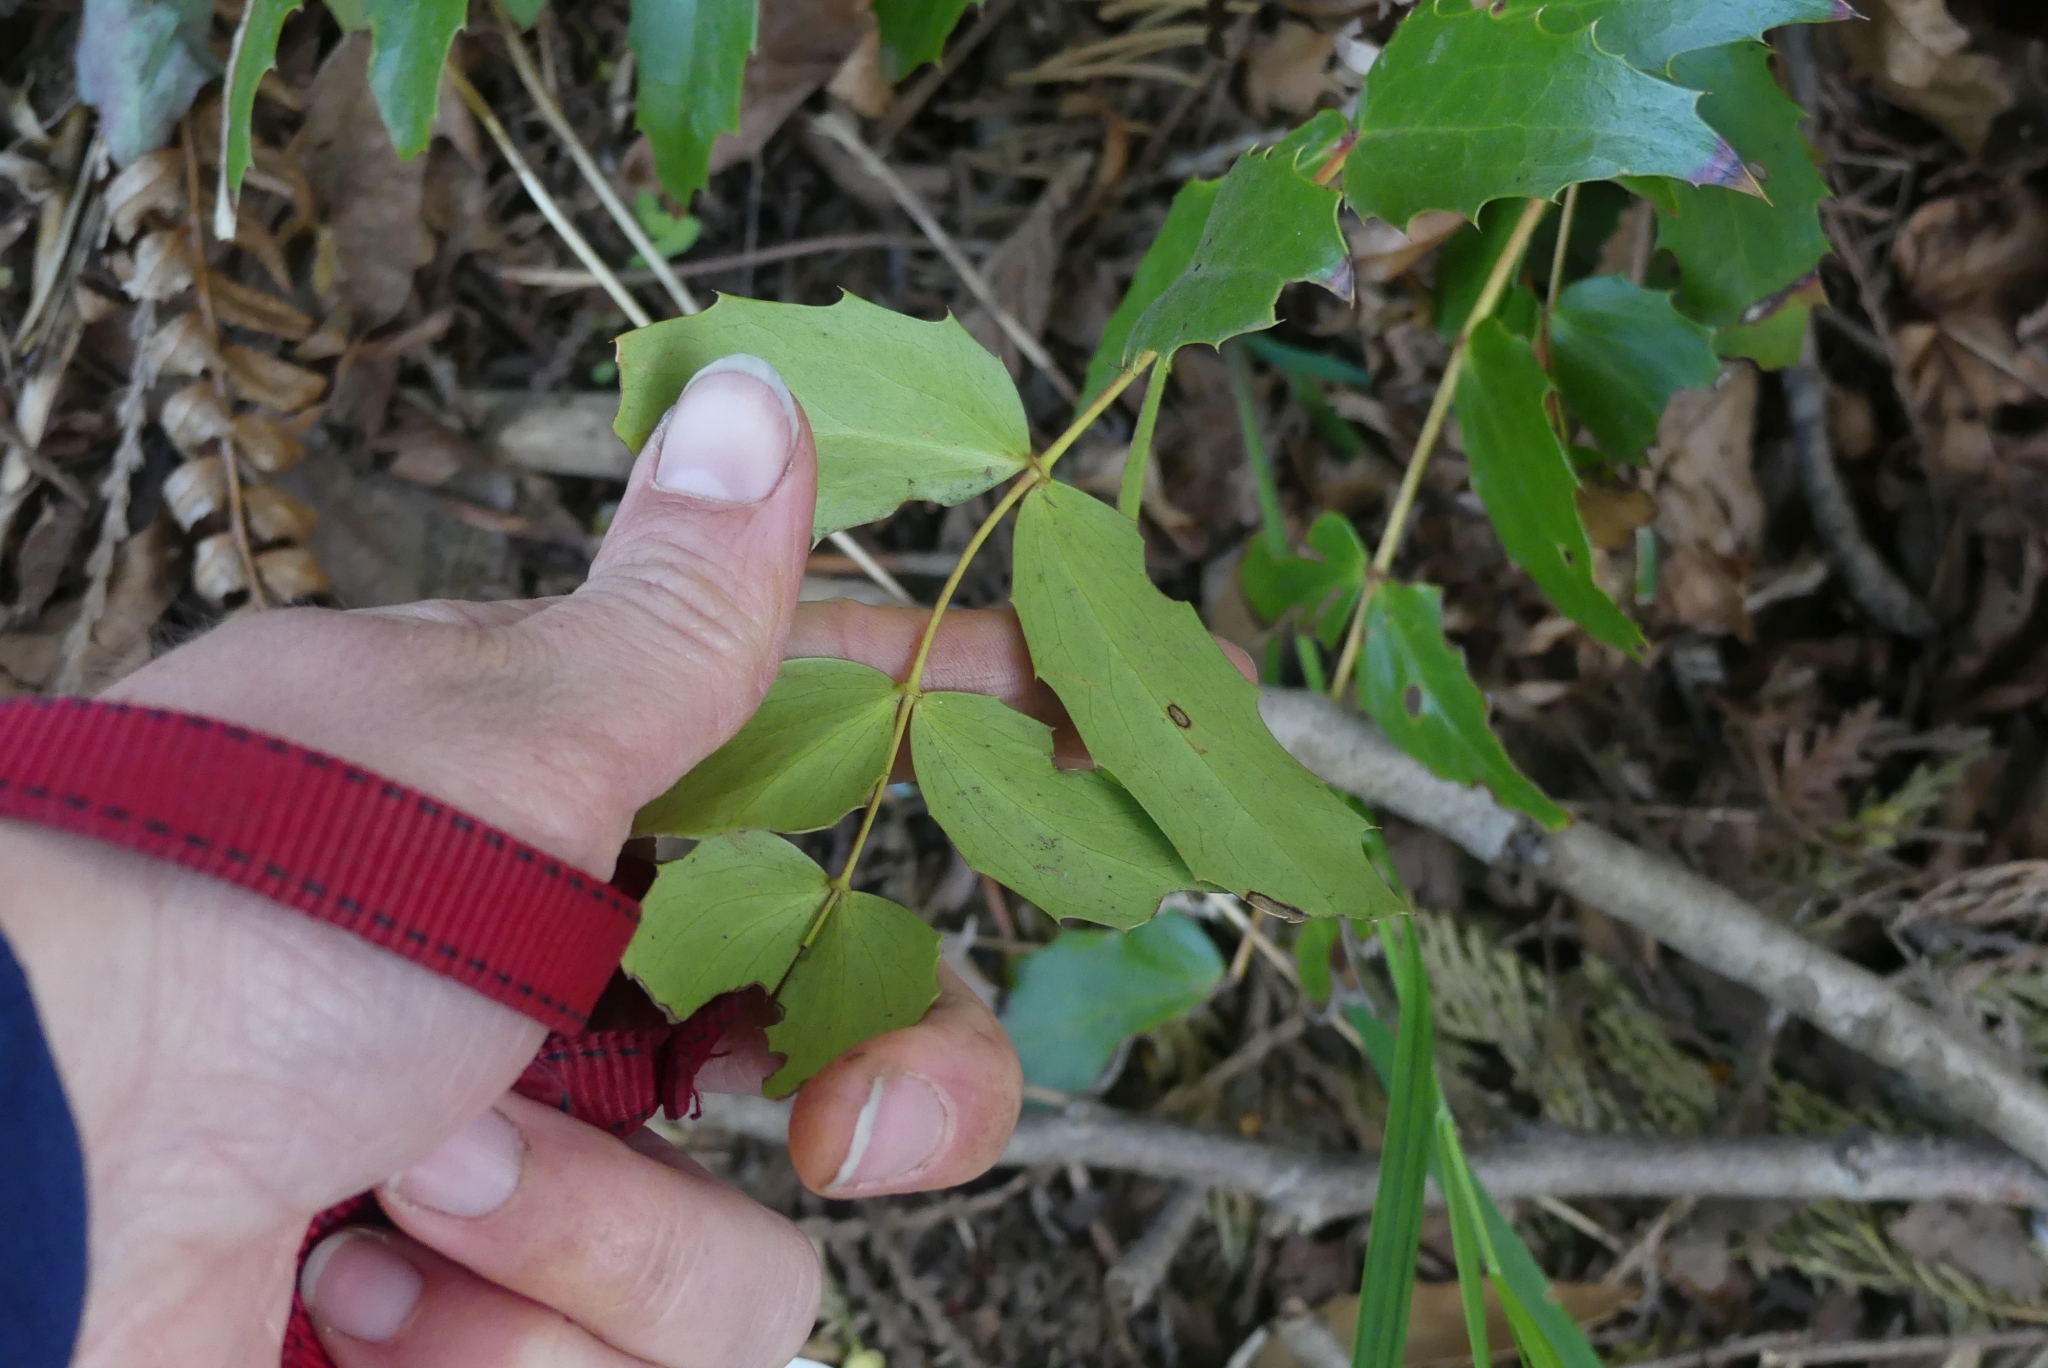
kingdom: Plantae
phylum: Tracheophyta
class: Magnoliopsida
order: Ranunculales
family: Berberidaceae
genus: Mahonia
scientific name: Mahonia nervosa
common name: Cascade oregon-grape
